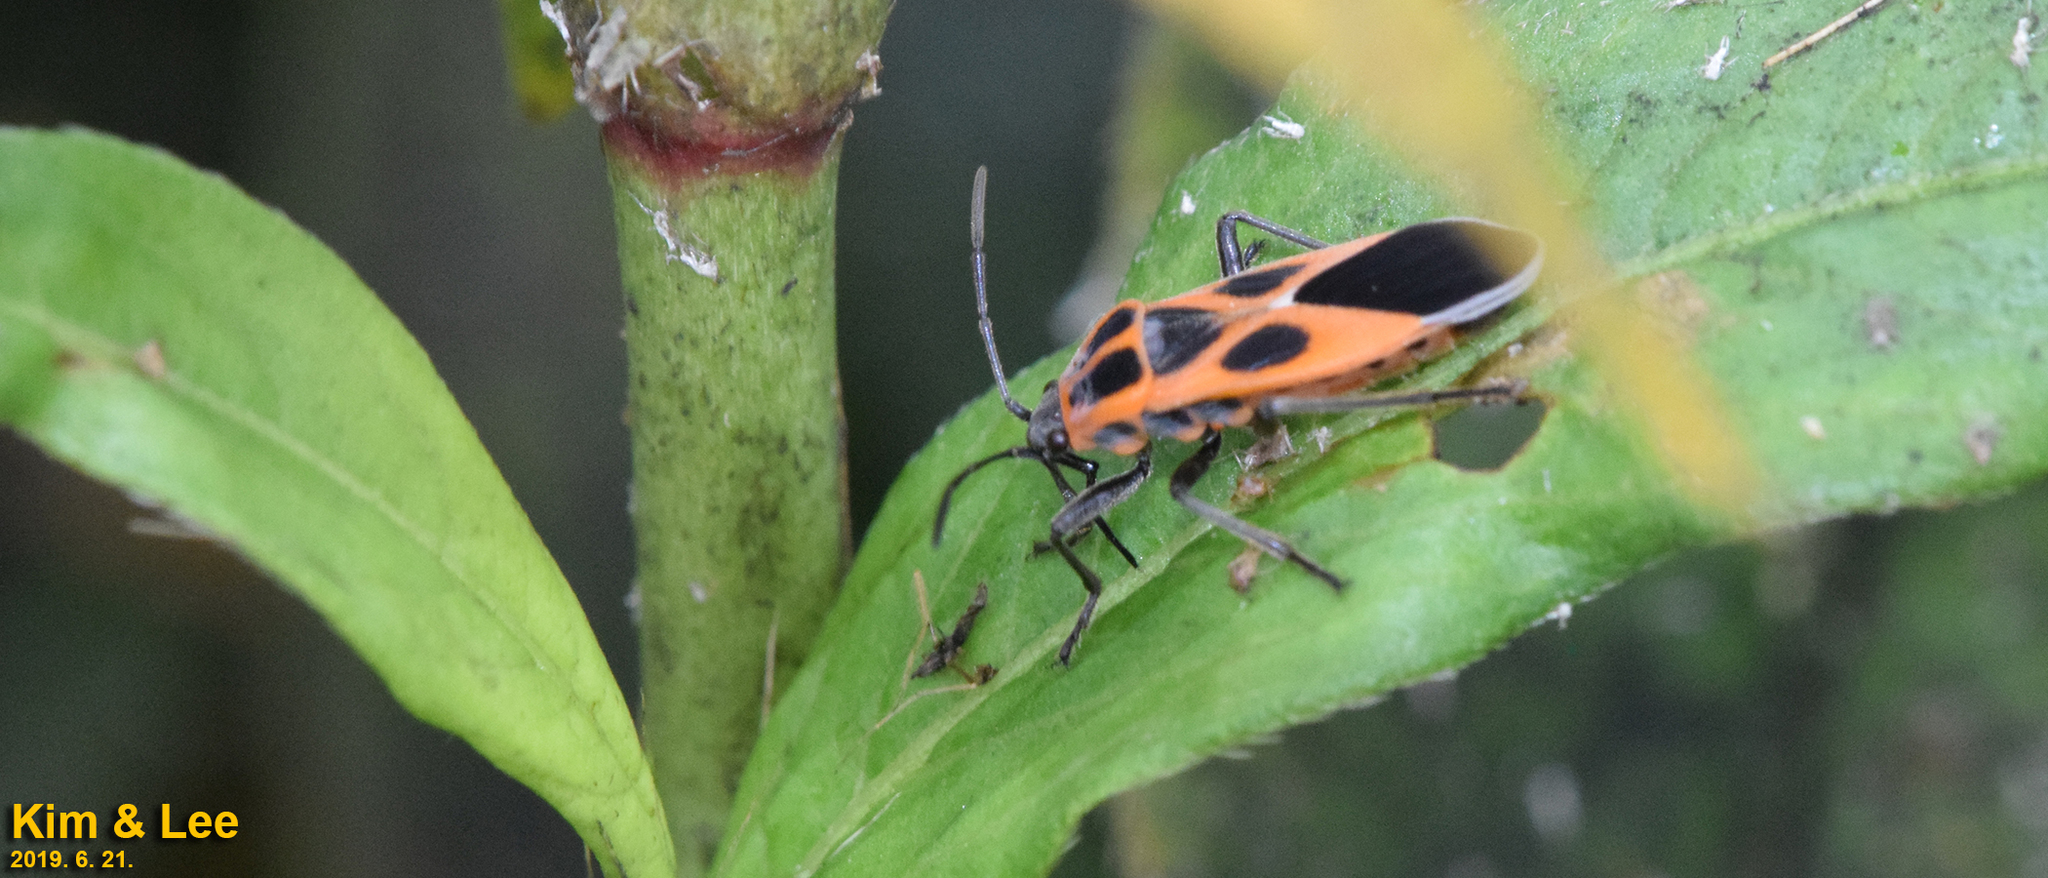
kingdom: Animalia
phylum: Arthropoda
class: Insecta
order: Hemiptera
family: Lygaeidae
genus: Tropidothorax
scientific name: Tropidothorax cruciger
